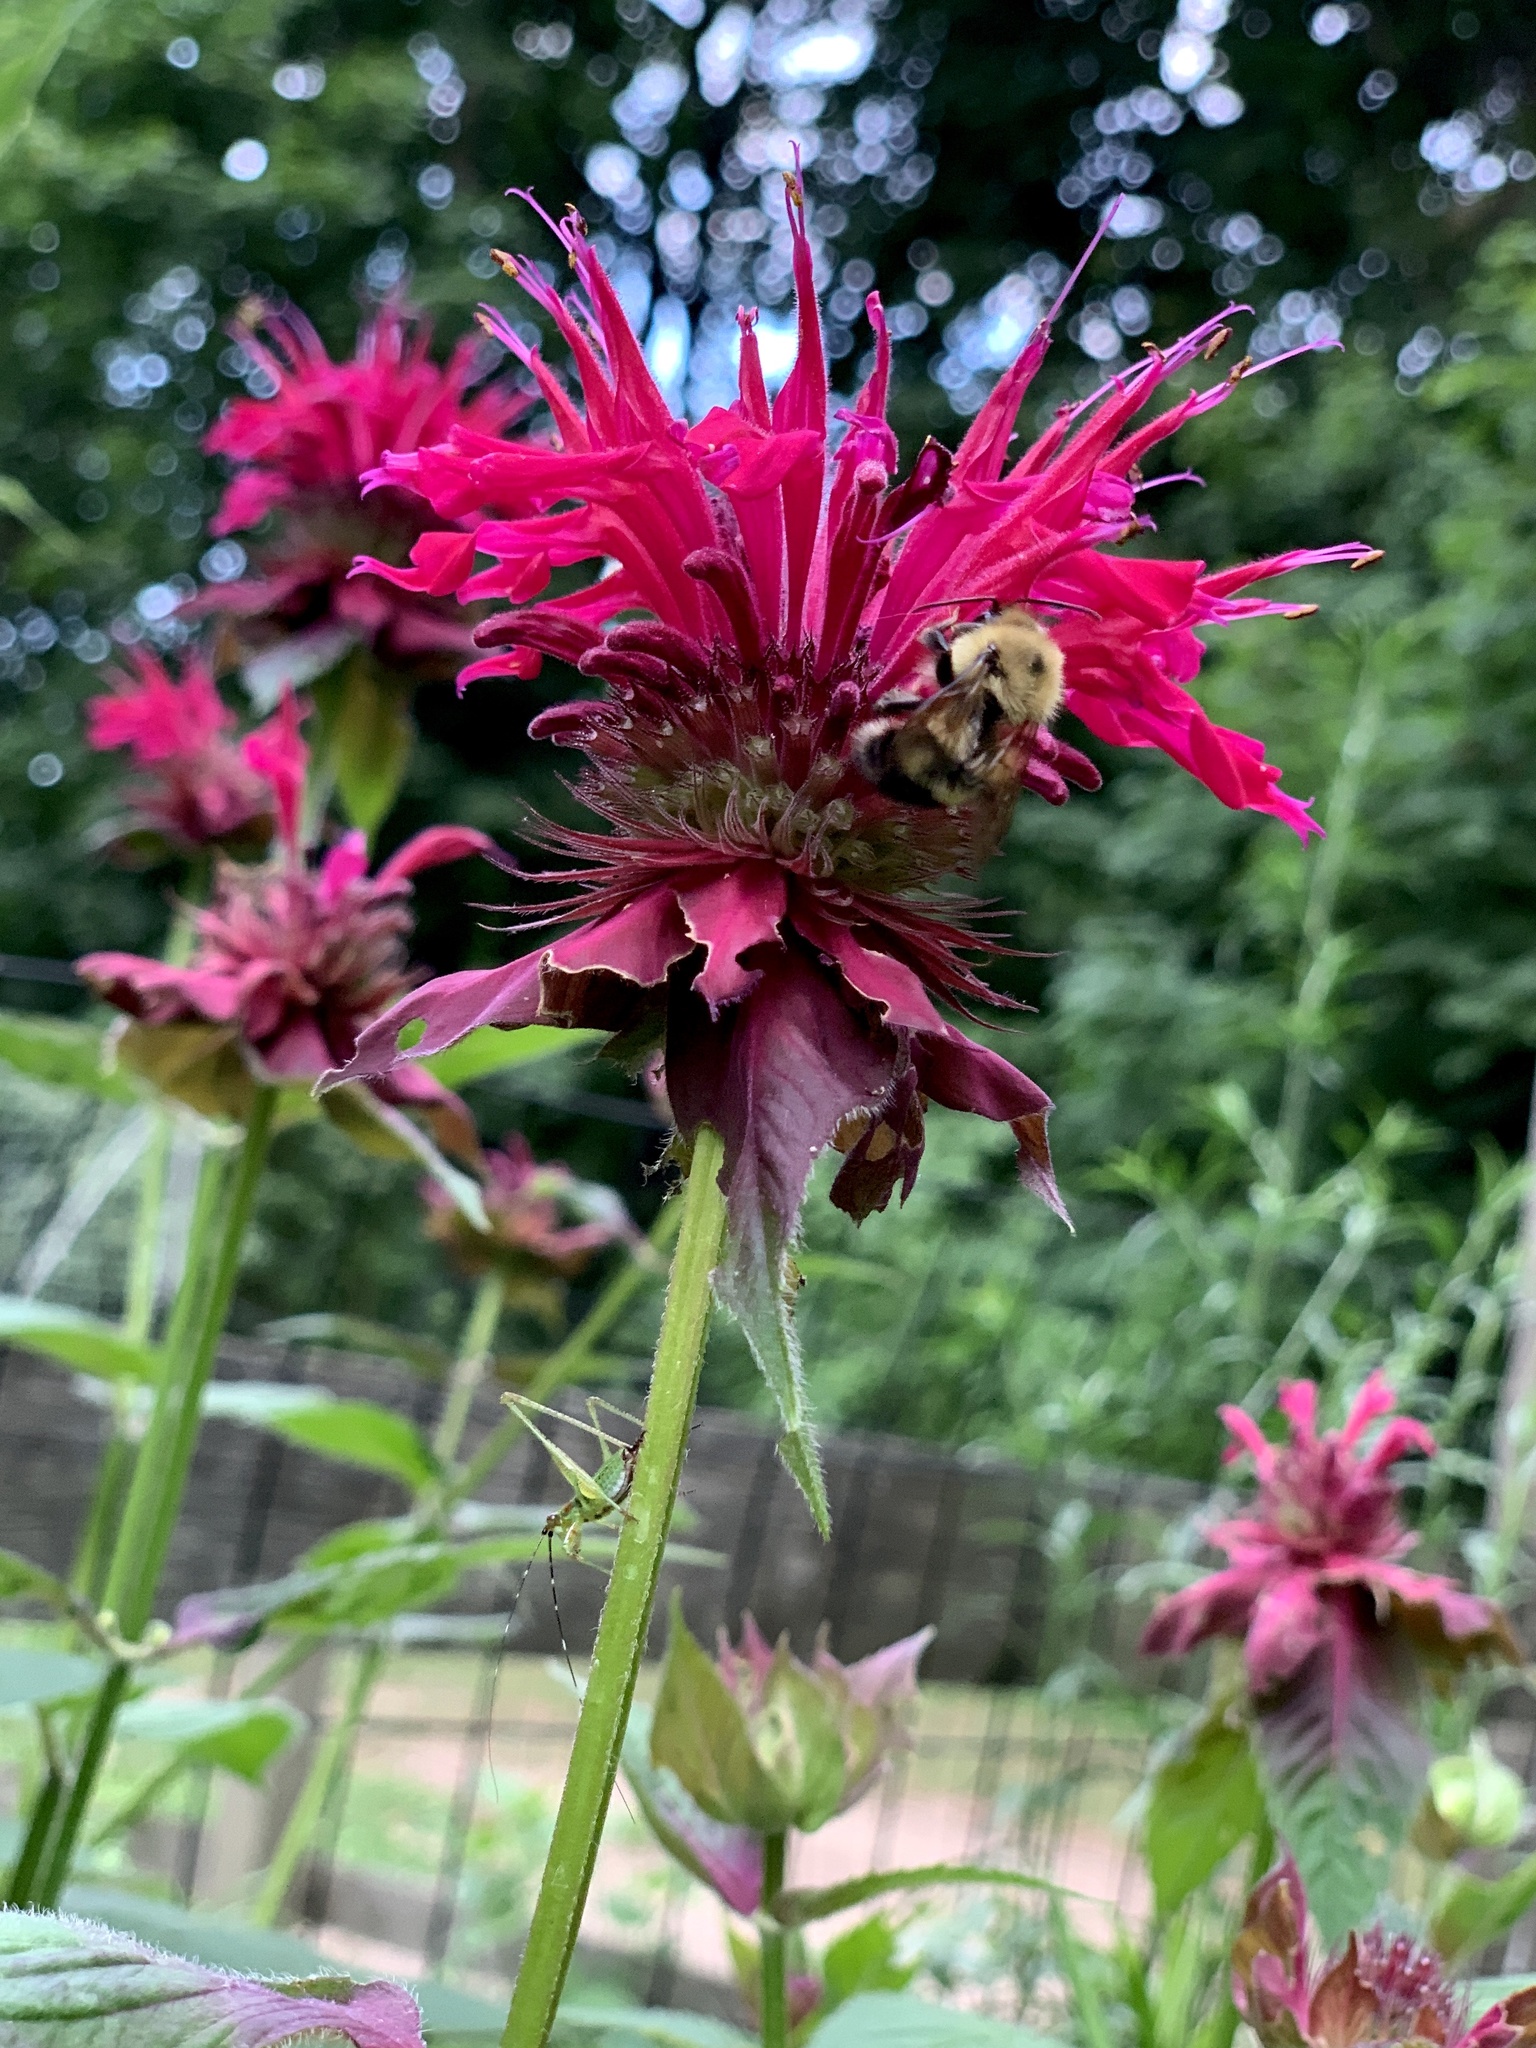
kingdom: Animalia
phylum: Arthropoda
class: Insecta
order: Hymenoptera
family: Apidae
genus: Bombus
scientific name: Bombus bimaculatus
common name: Two-spotted bumble bee
